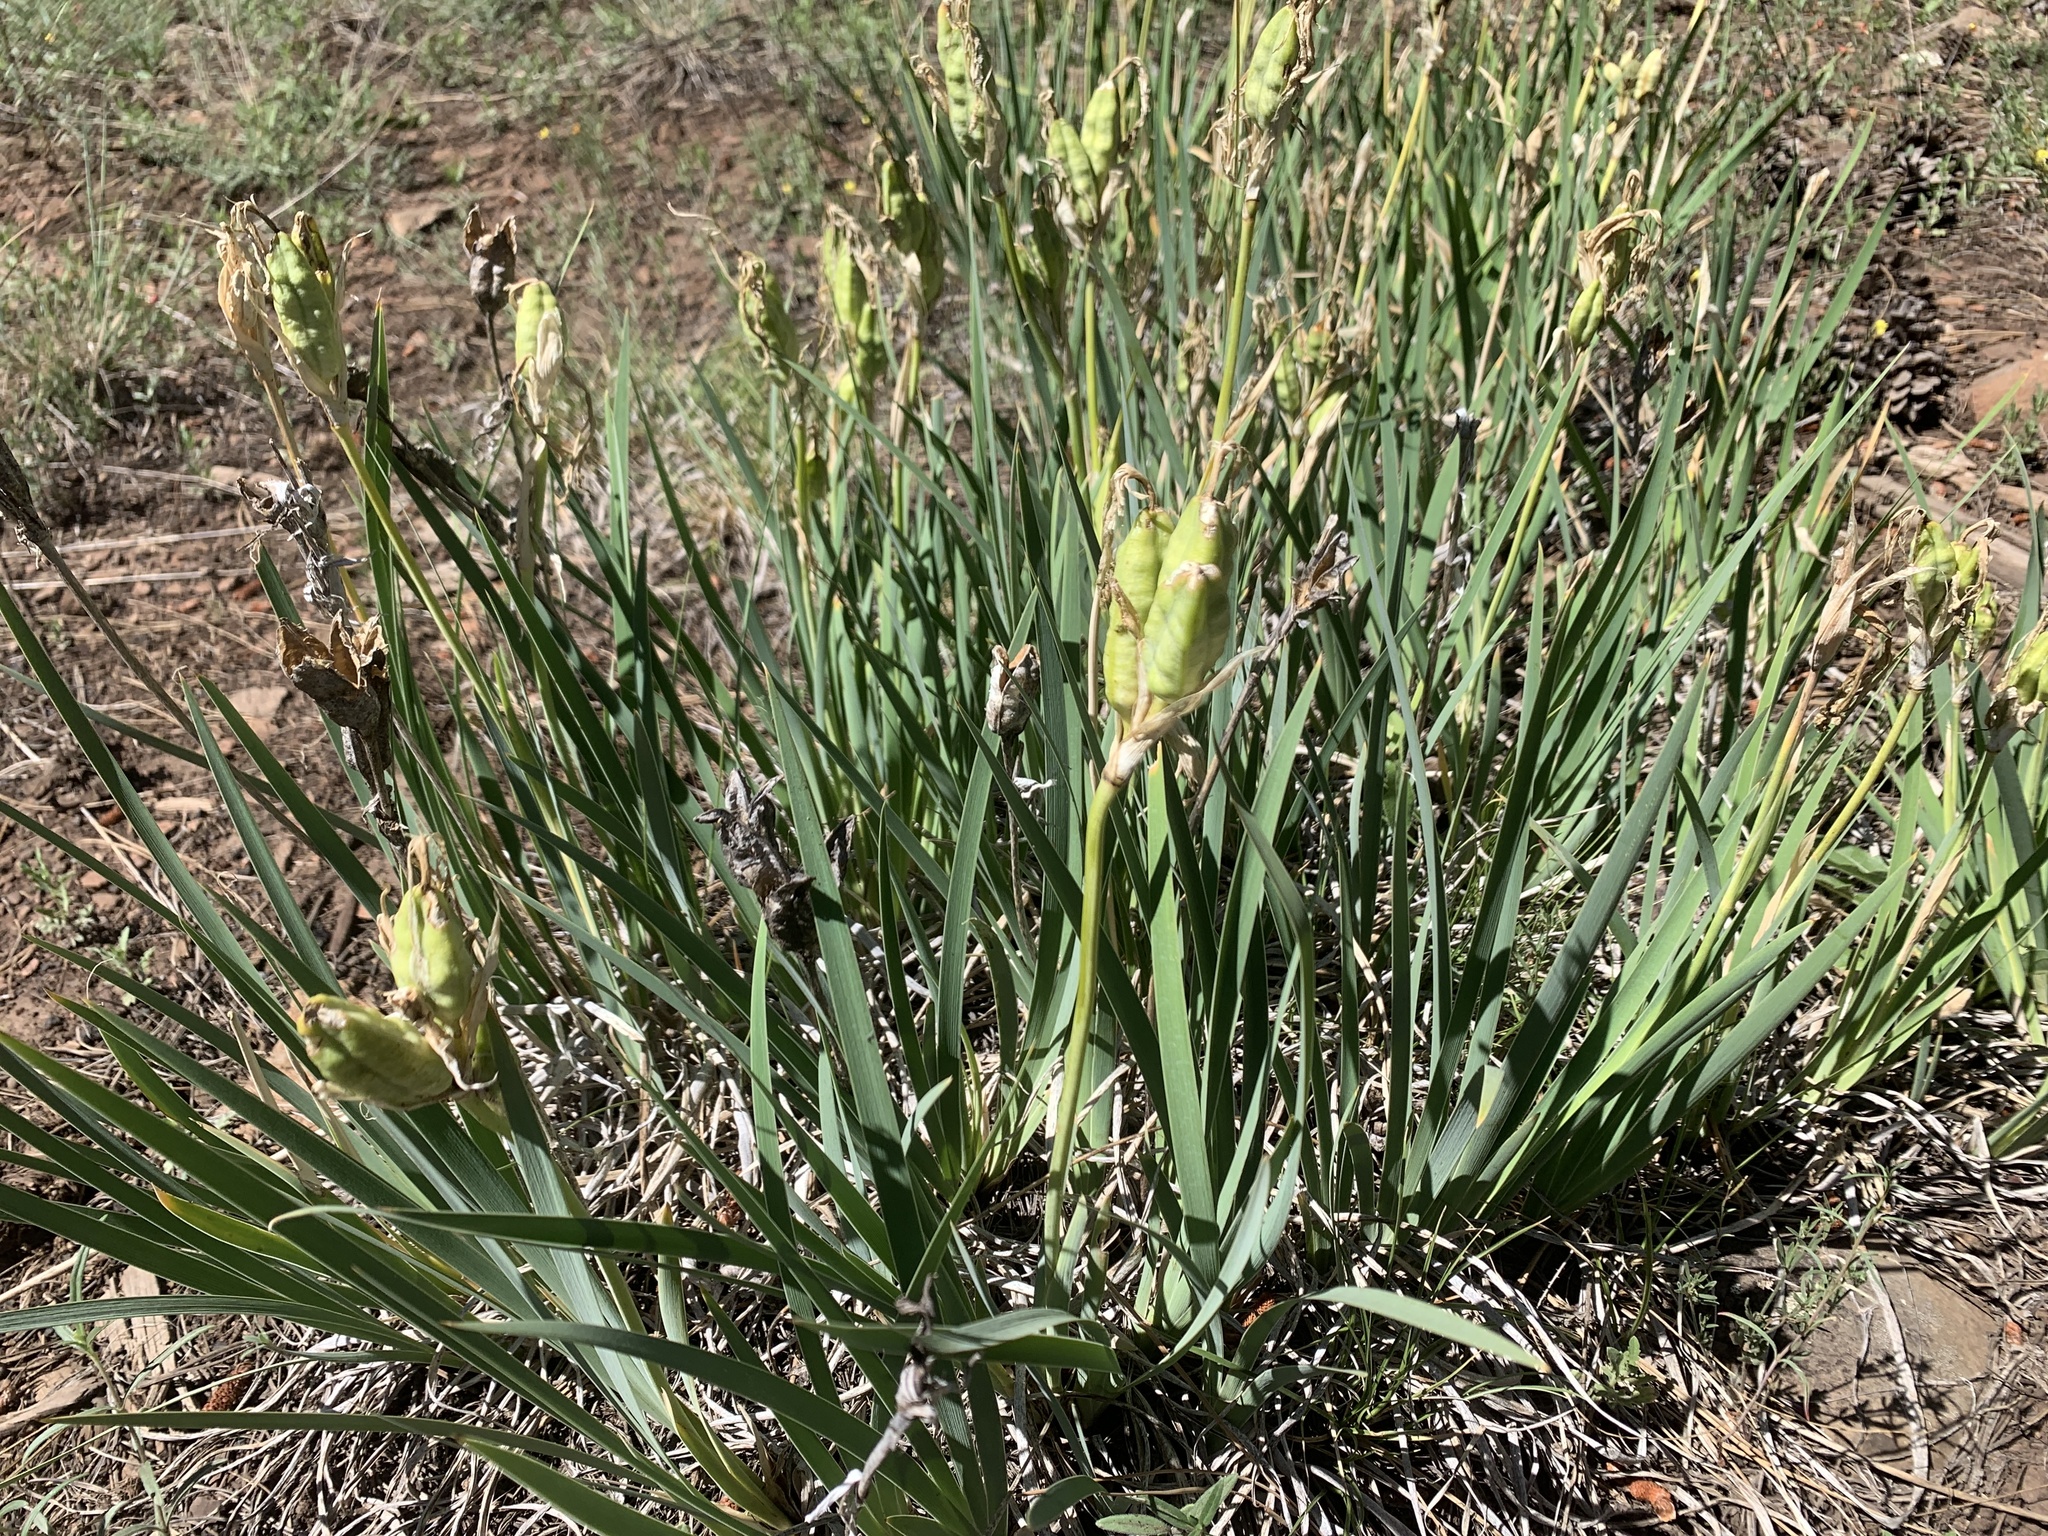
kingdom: Plantae
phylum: Tracheophyta
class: Liliopsida
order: Asparagales
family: Iridaceae
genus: Iris
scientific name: Iris missouriensis
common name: Rocky mountain iris
